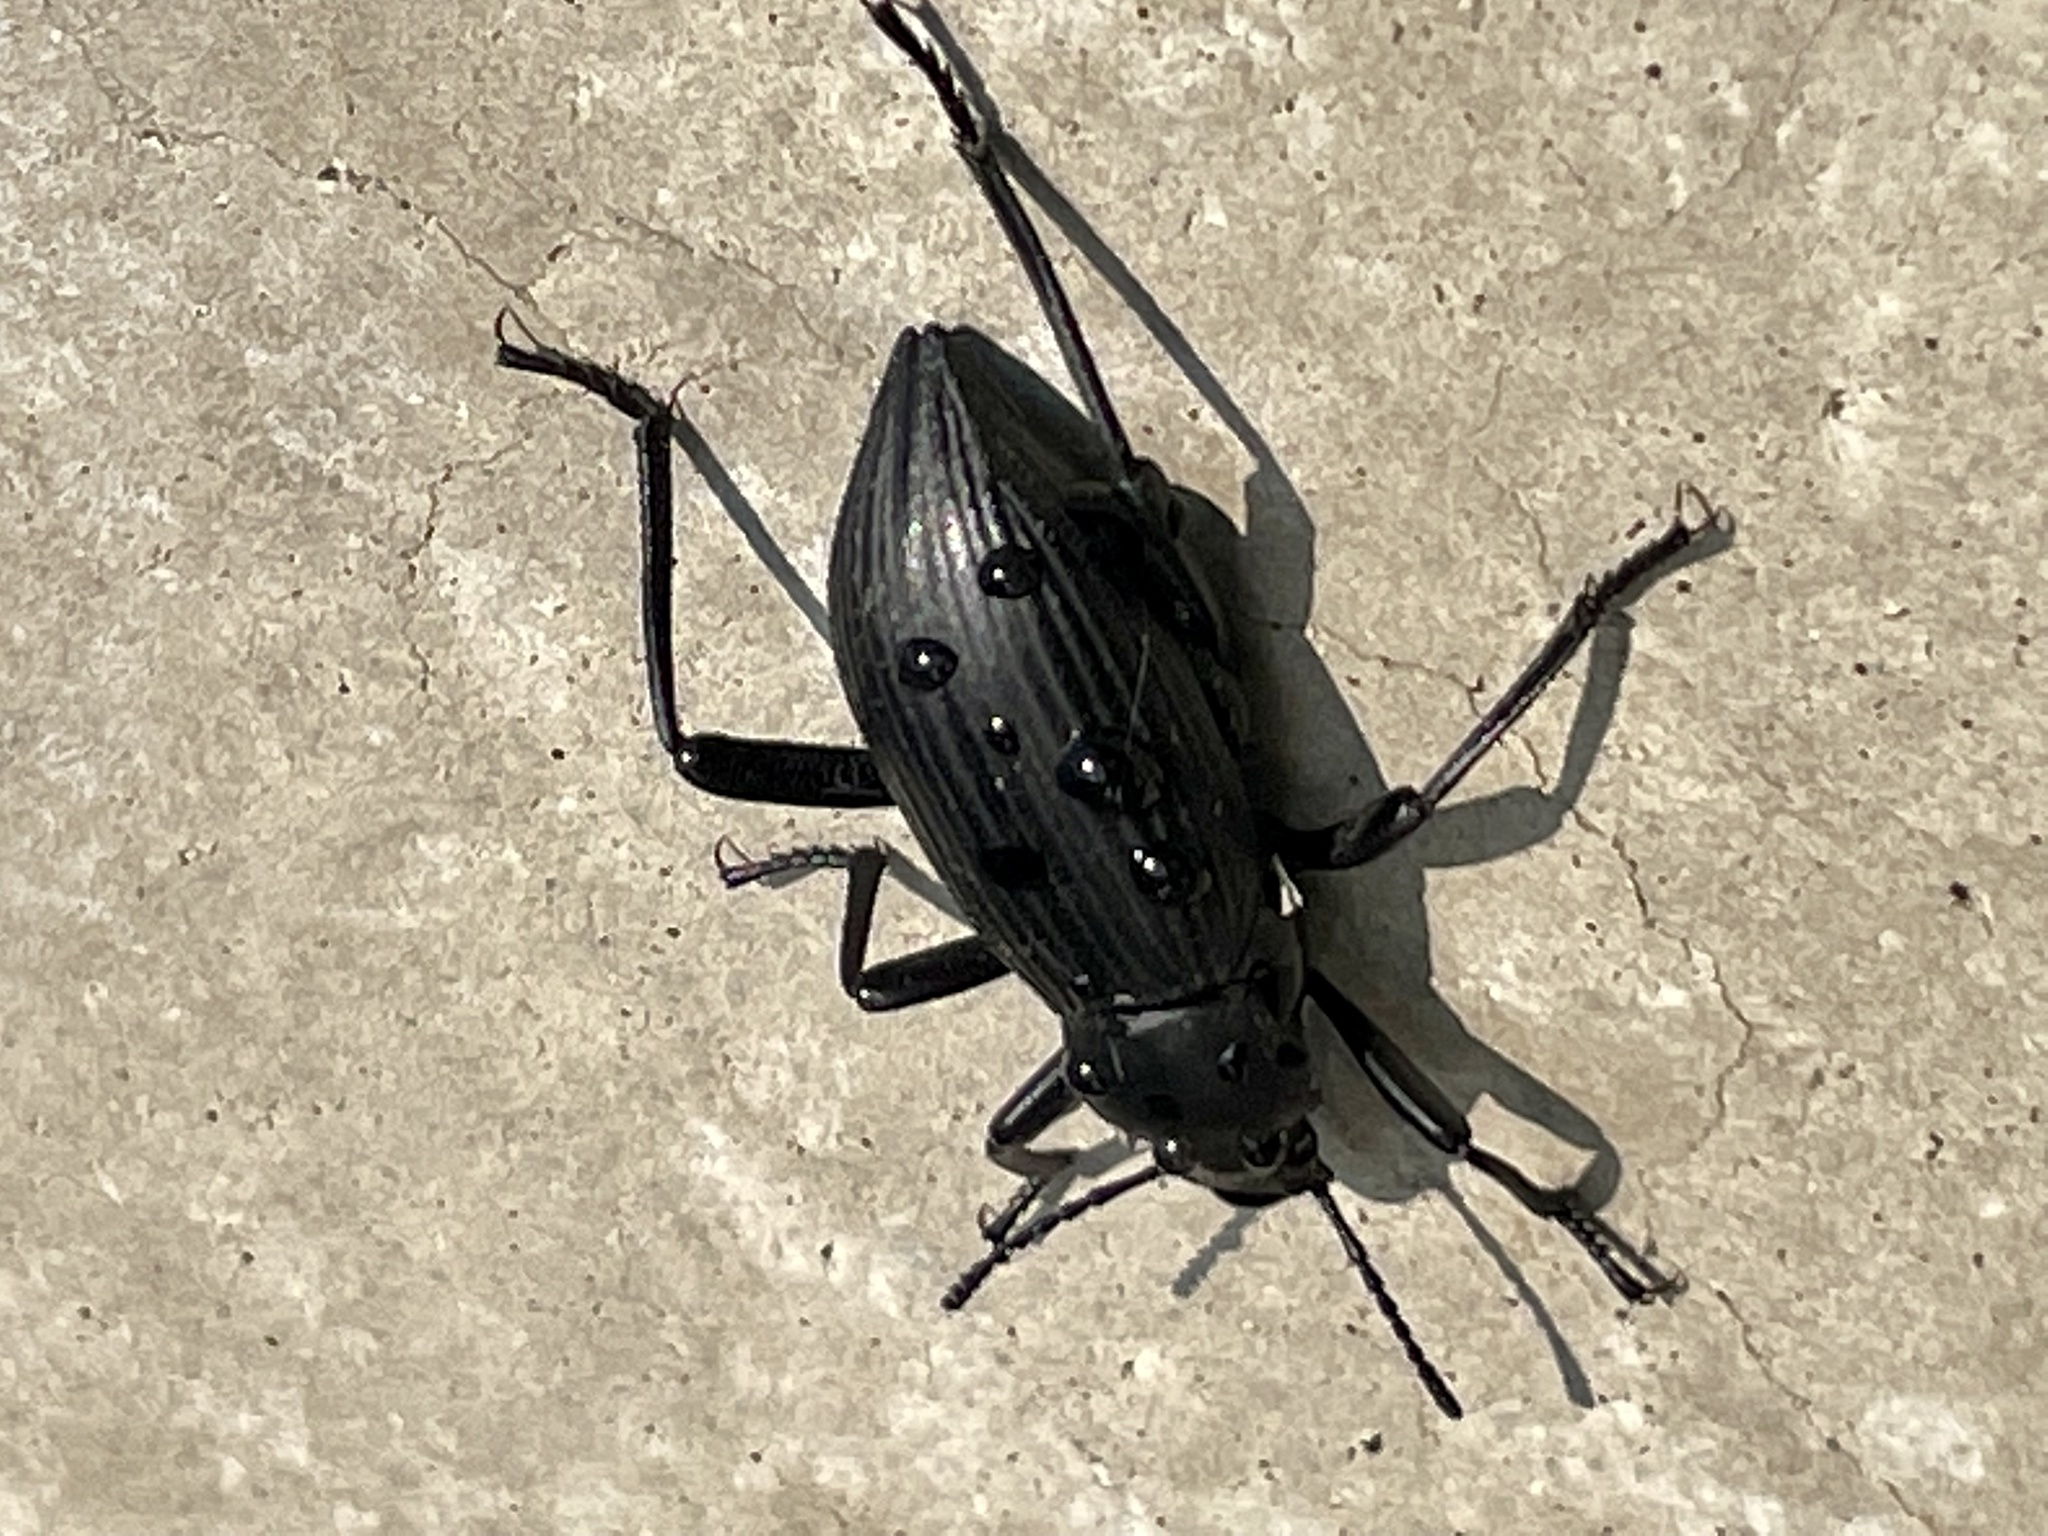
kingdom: Animalia
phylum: Arthropoda
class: Insecta
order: Coleoptera
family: Tenebrionidae
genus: Eleodes
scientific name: Eleodes hispilabris
